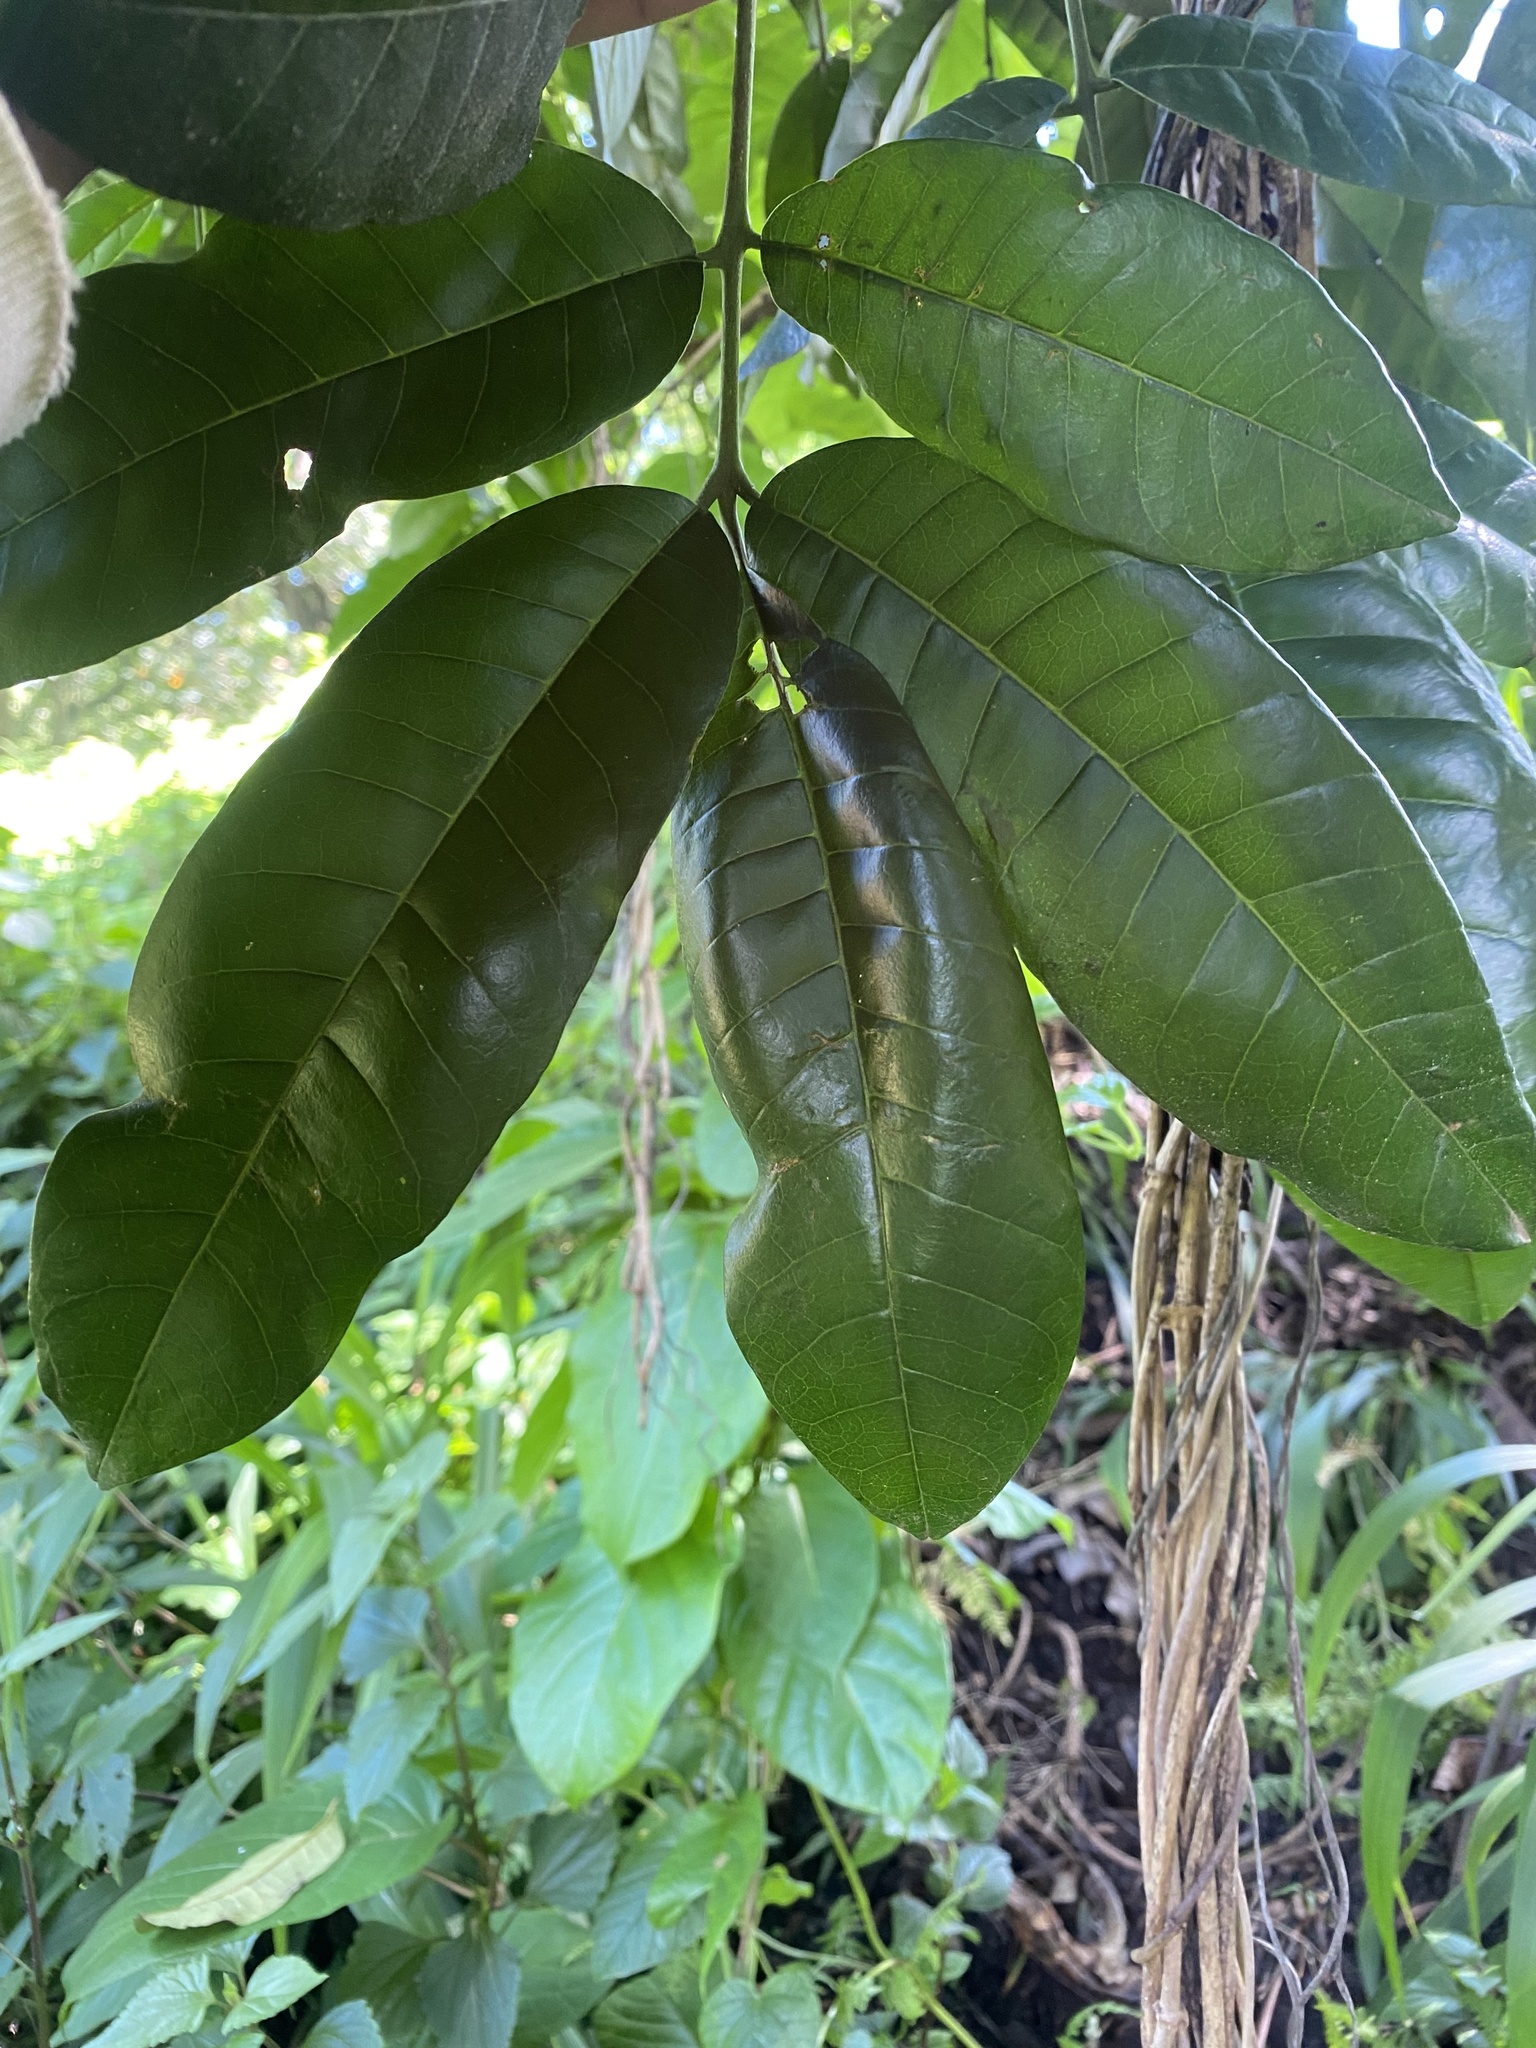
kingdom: Plantae
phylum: Tracheophyta
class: Magnoliopsida
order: Sapindales
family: Meliaceae
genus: Trichilia
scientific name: Trichilia dregeana
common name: Christmas-bells
